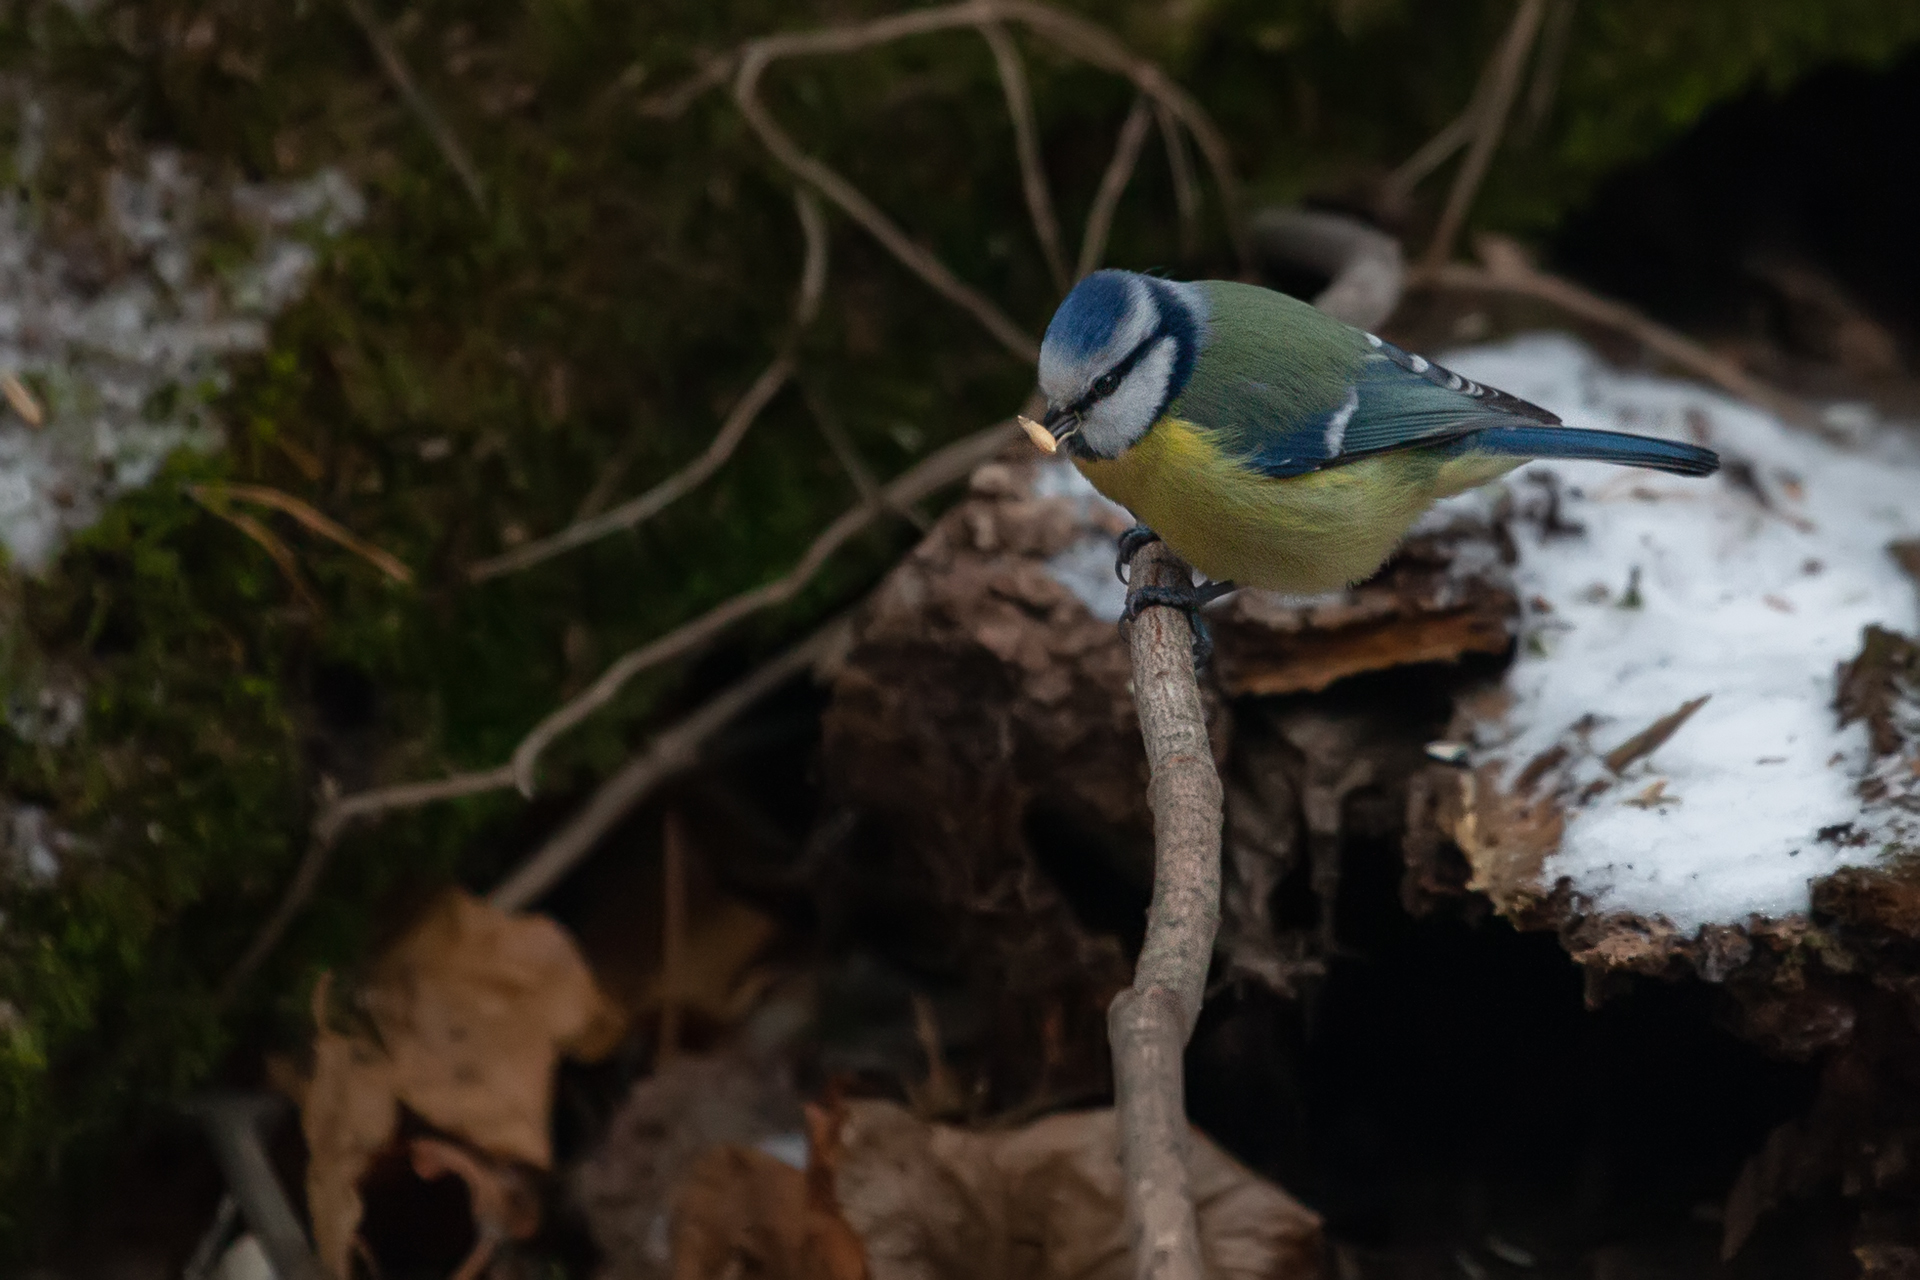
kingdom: Animalia
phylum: Chordata
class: Aves
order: Passeriformes
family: Paridae
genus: Cyanistes
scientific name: Cyanistes caeruleus
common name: Eurasian blue tit
